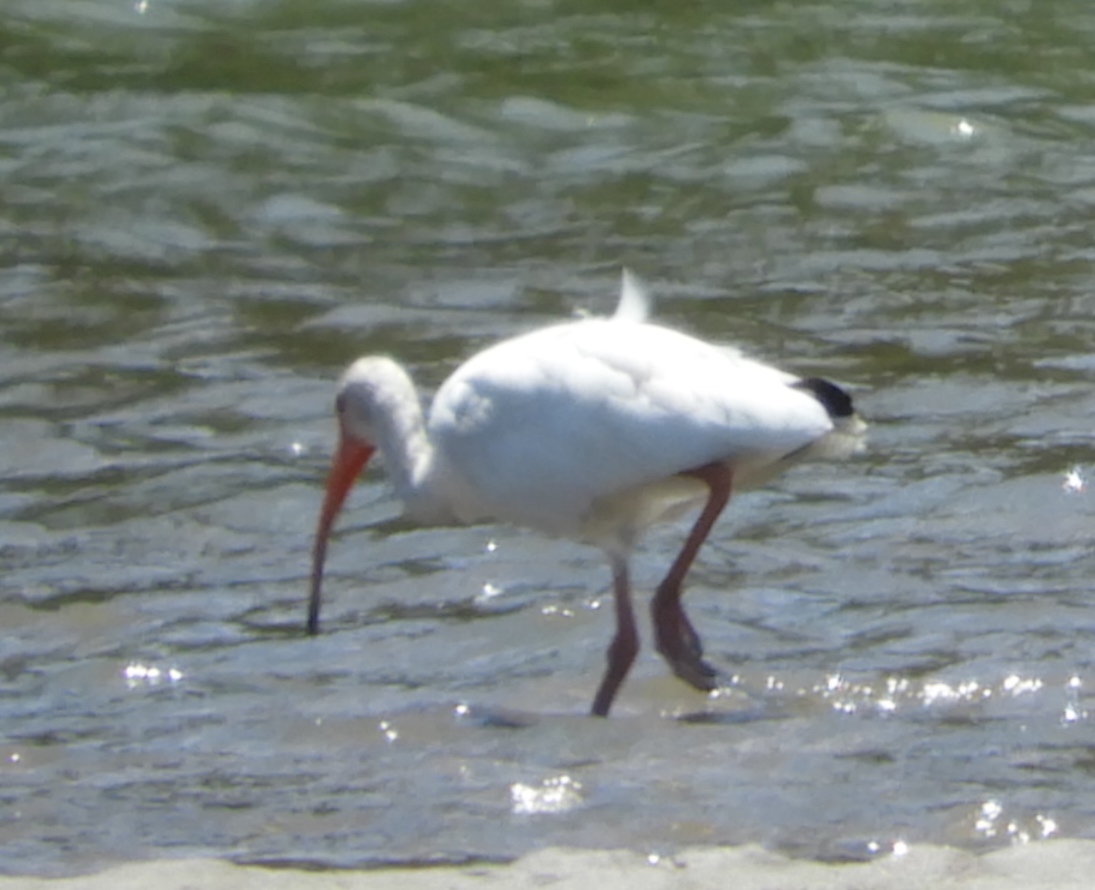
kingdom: Animalia
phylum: Chordata
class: Aves
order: Pelecaniformes
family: Threskiornithidae
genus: Eudocimus
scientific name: Eudocimus albus
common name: White ibis
